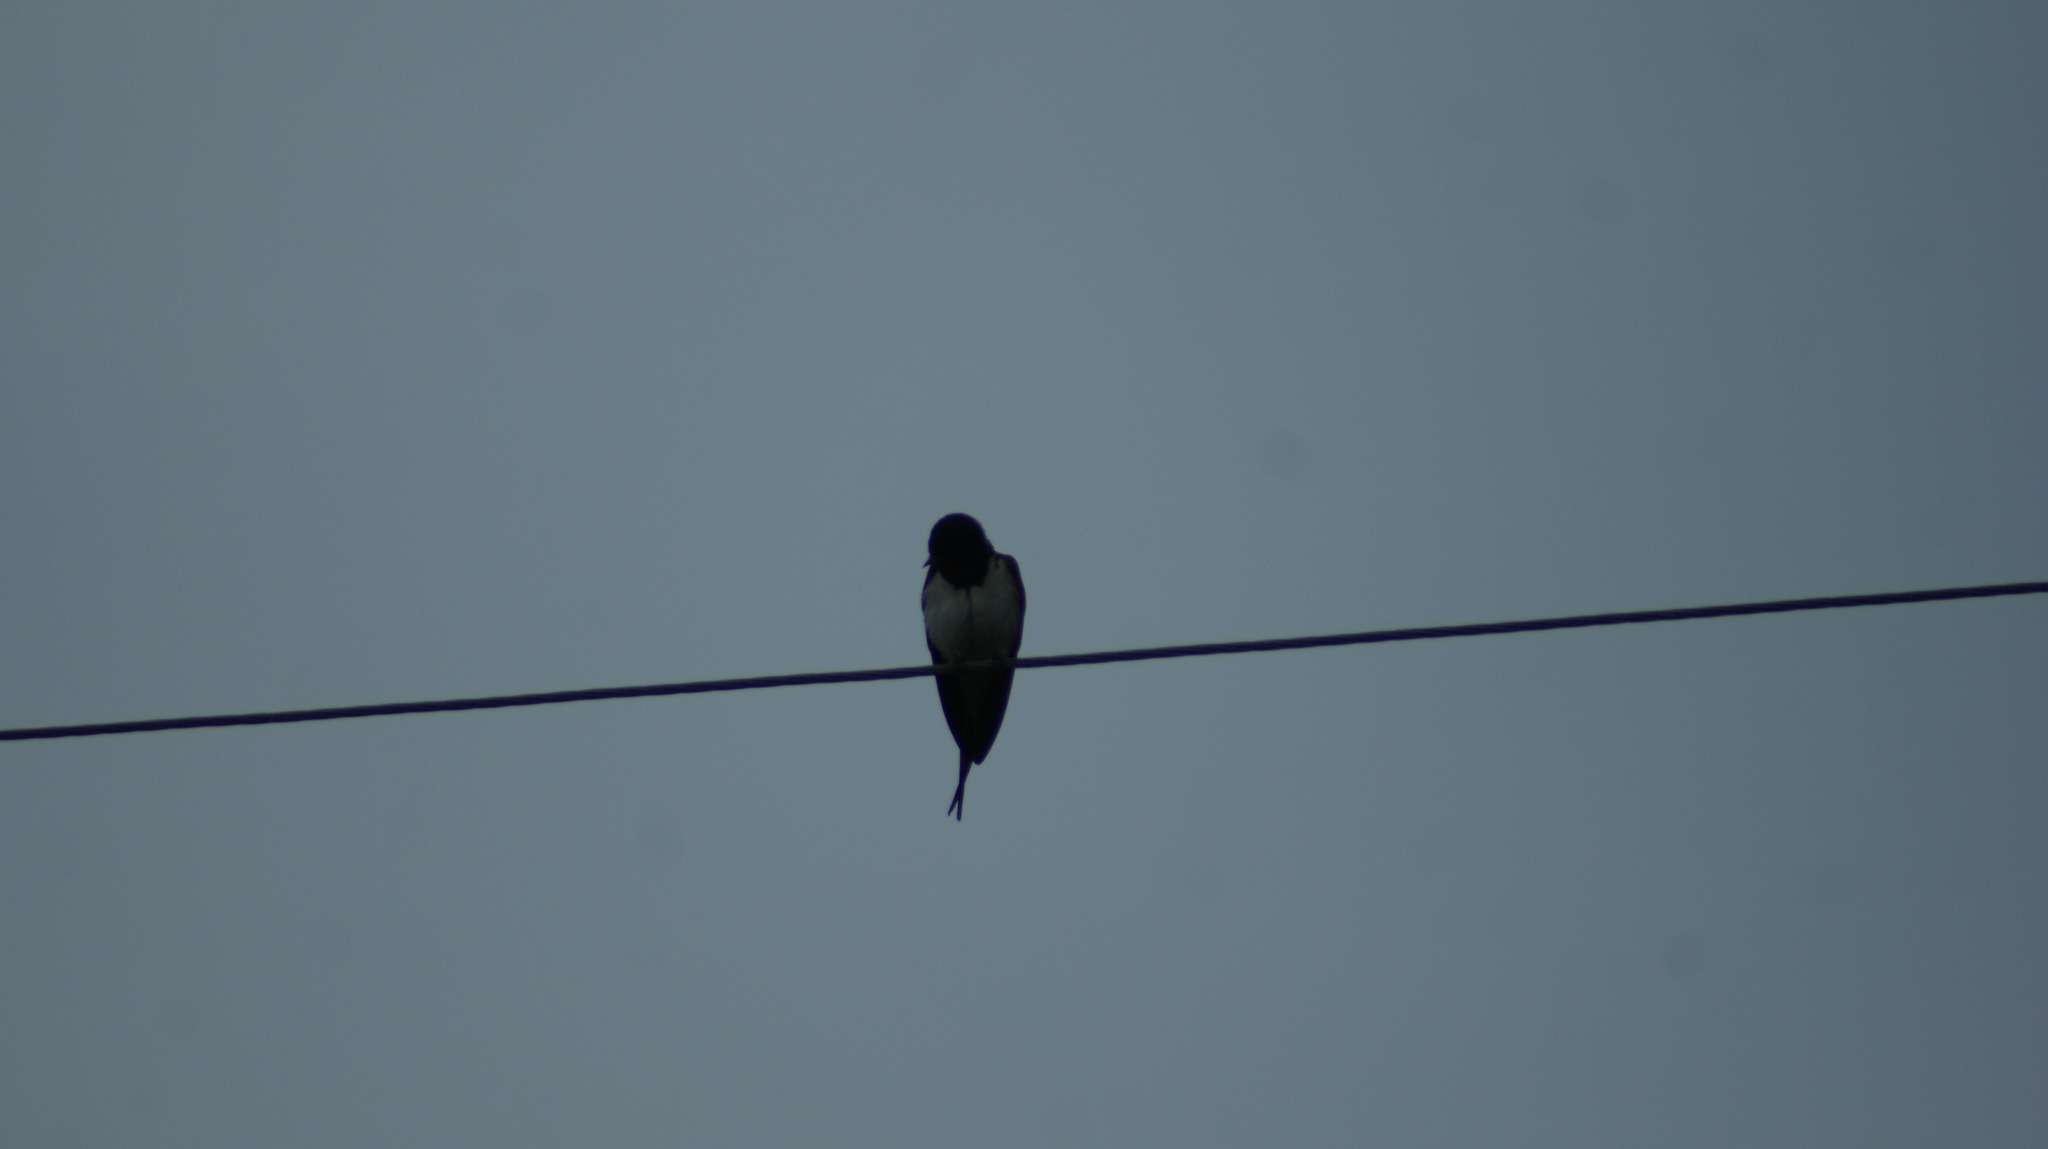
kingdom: Animalia
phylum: Chordata
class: Aves
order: Passeriformes
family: Hirundinidae
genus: Hirundo
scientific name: Hirundo rustica
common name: Barn swallow
